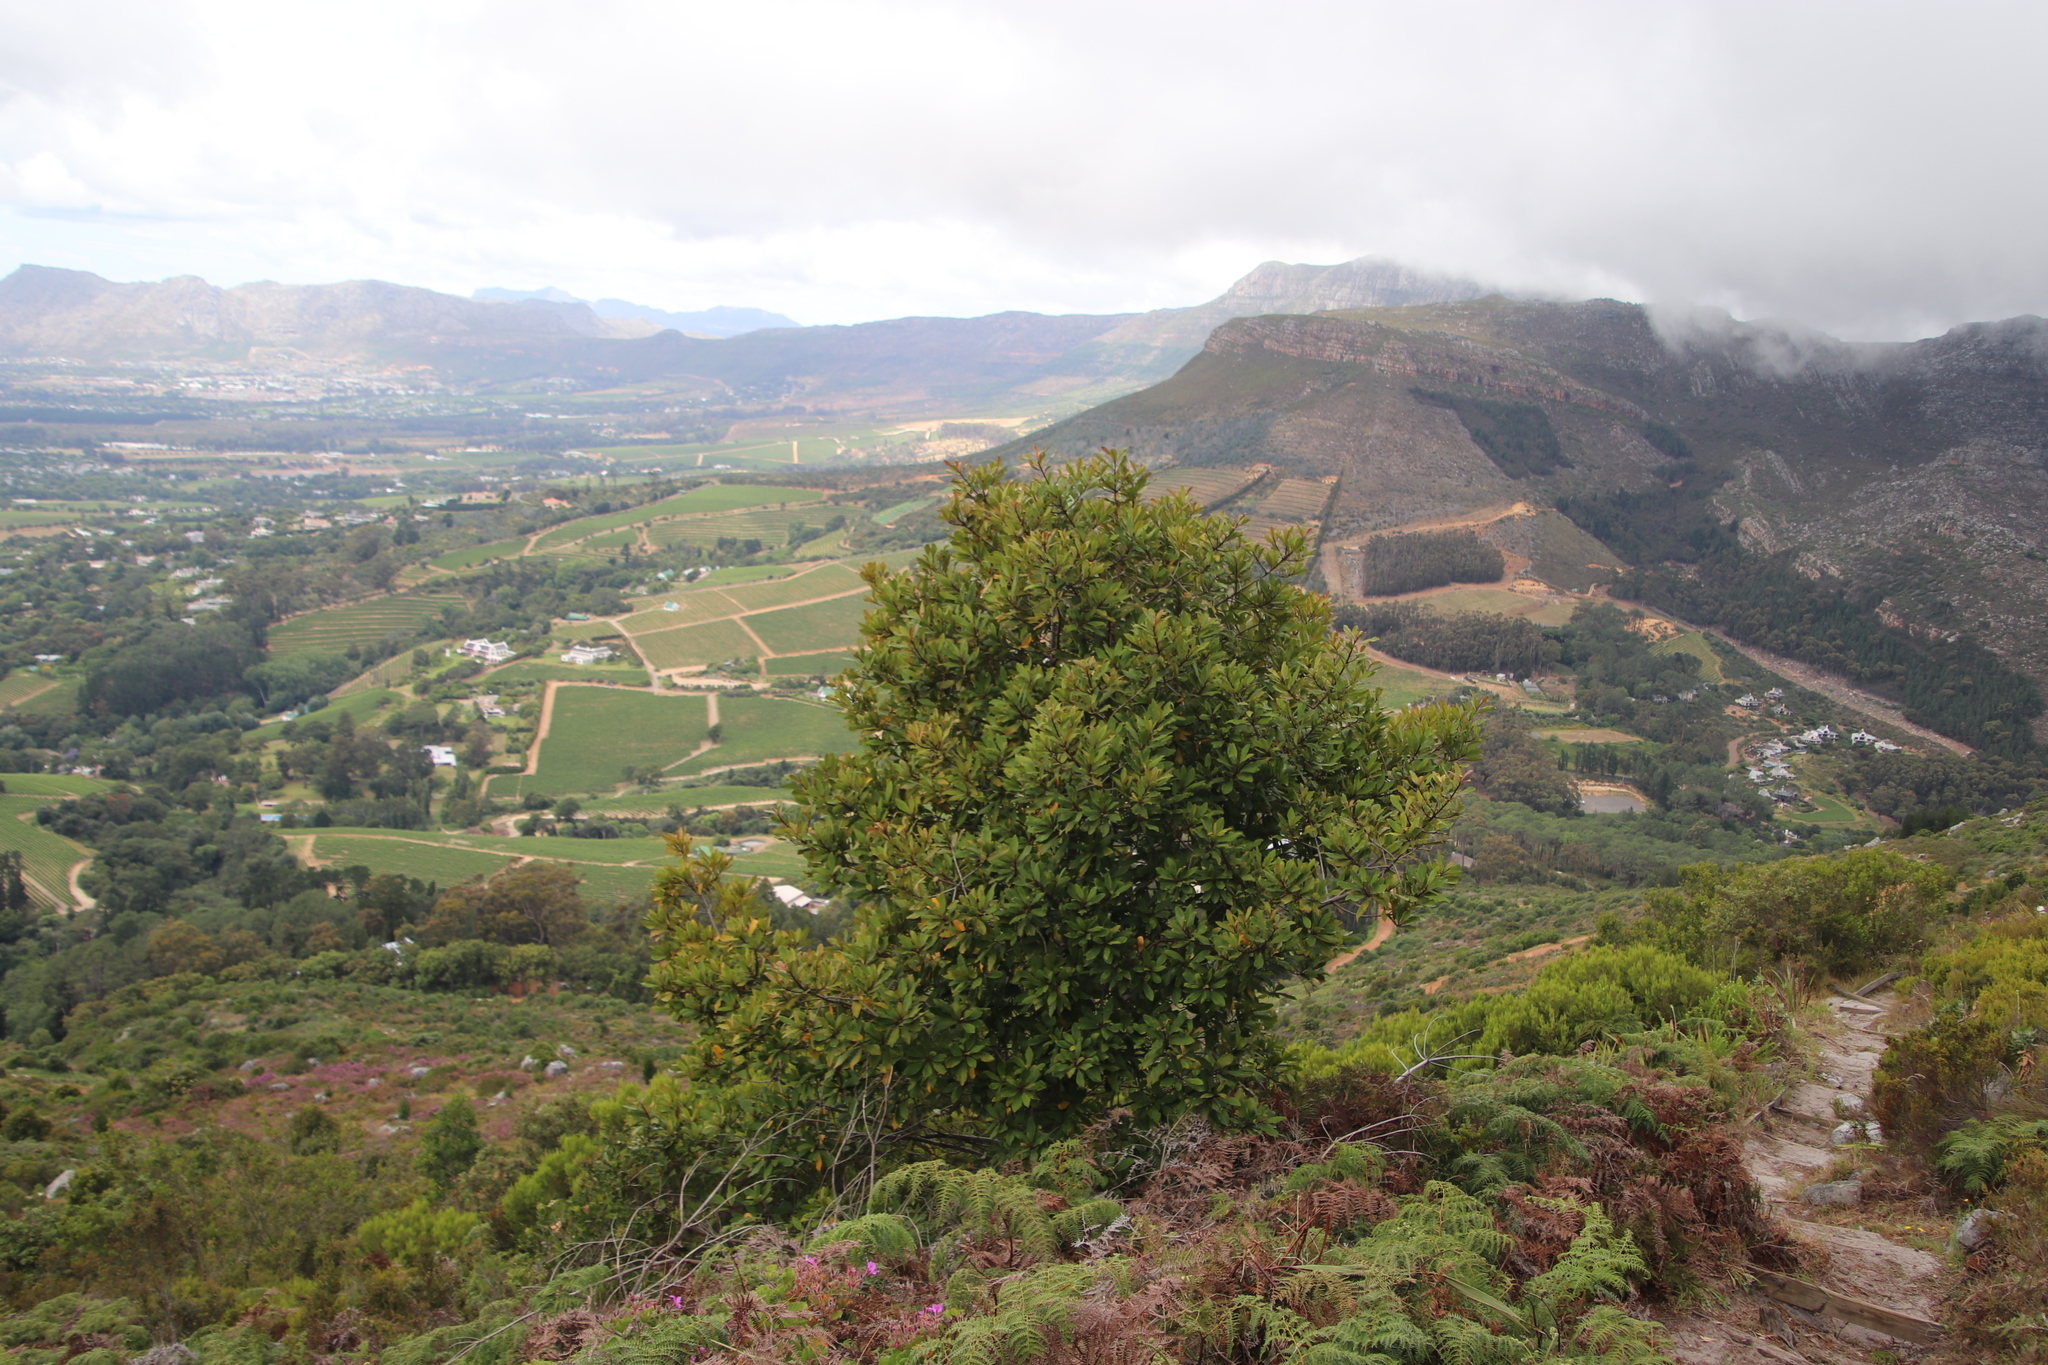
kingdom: Plantae
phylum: Tracheophyta
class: Magnoliopsida
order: Ericales
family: Primulaceae
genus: Myrsine
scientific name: Myrsine melanophloeos
